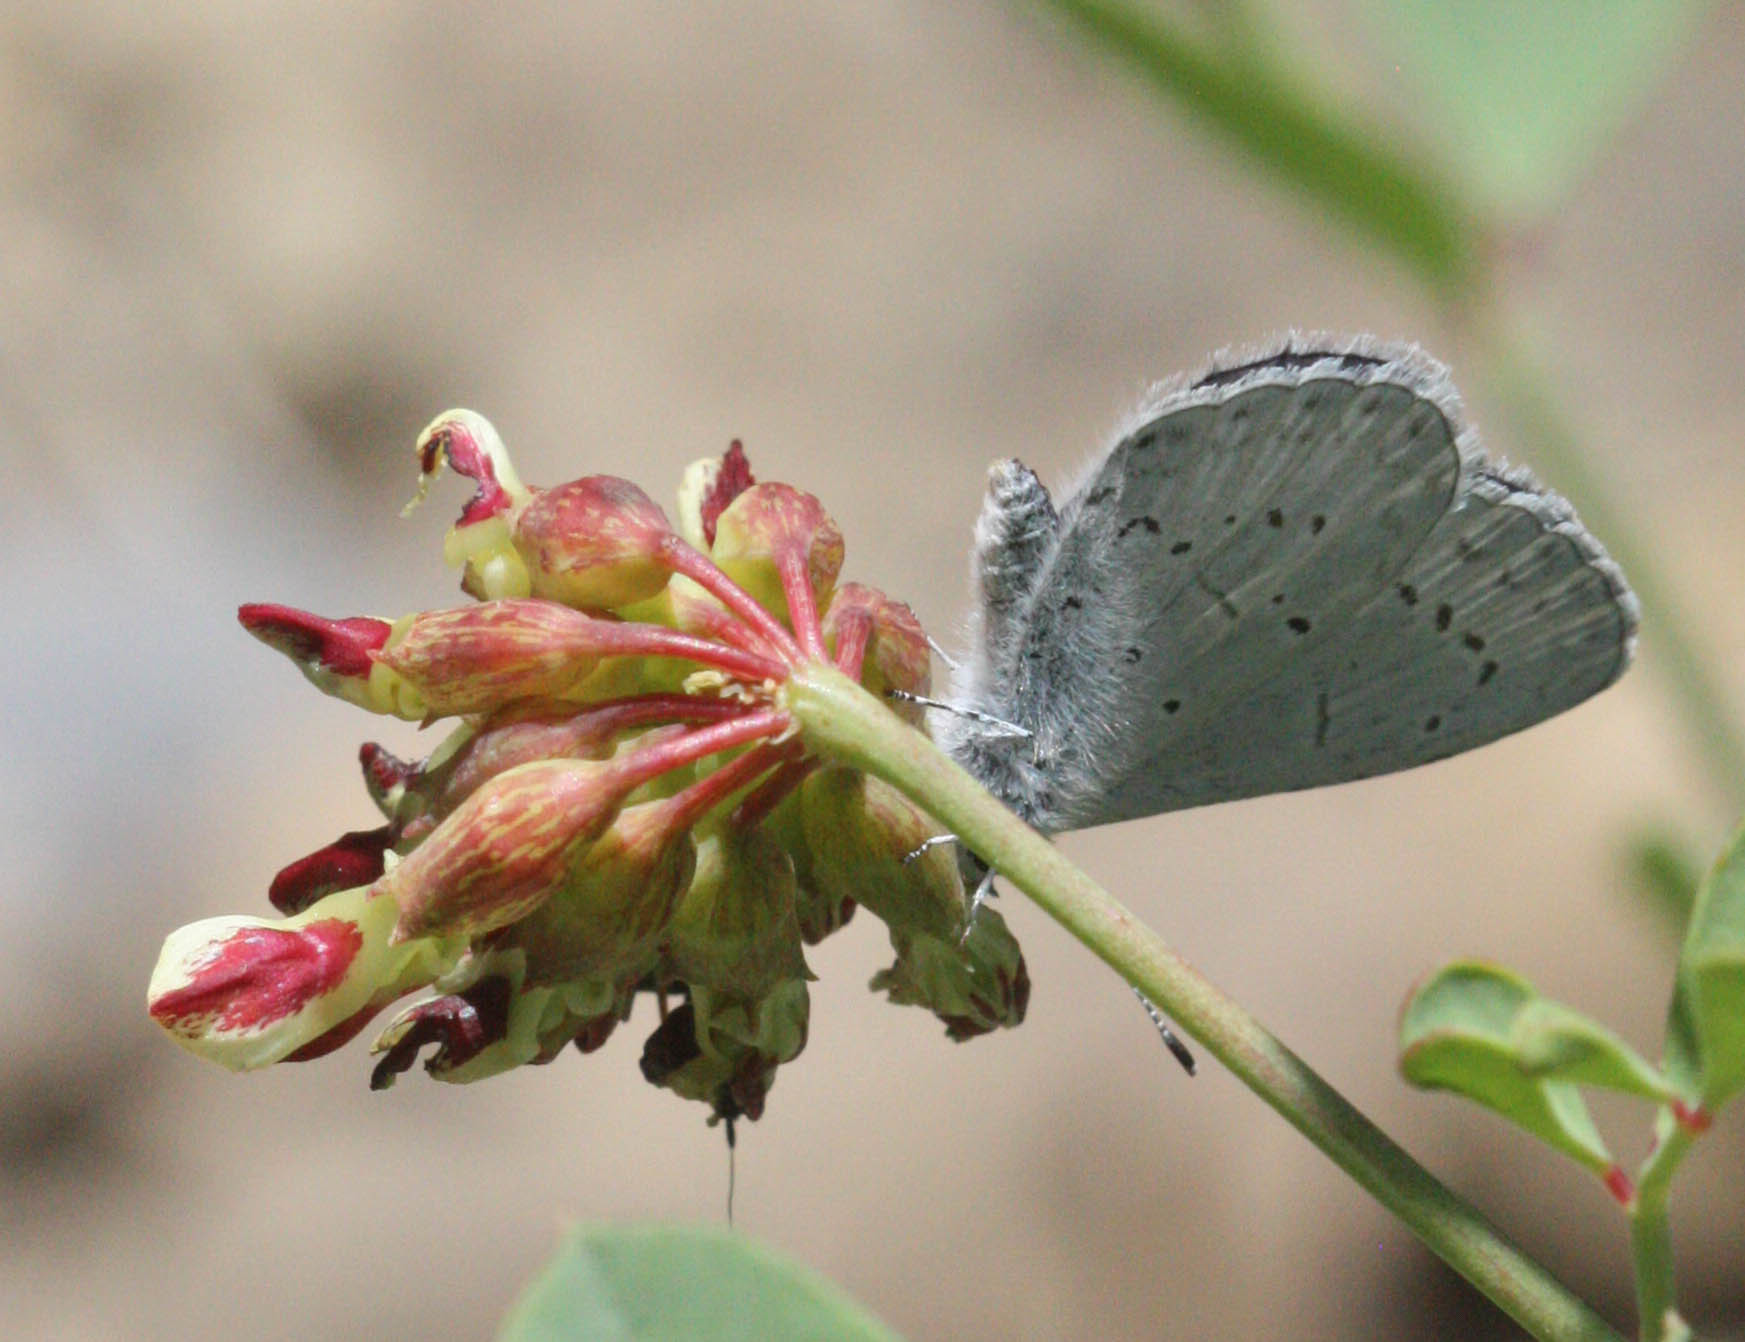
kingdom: Animalia
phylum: Arthropoda
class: Insecta
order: Lepidoptera
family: Lycaenidae
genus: Celastrina
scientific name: Celastrina ladon
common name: Spring azure
